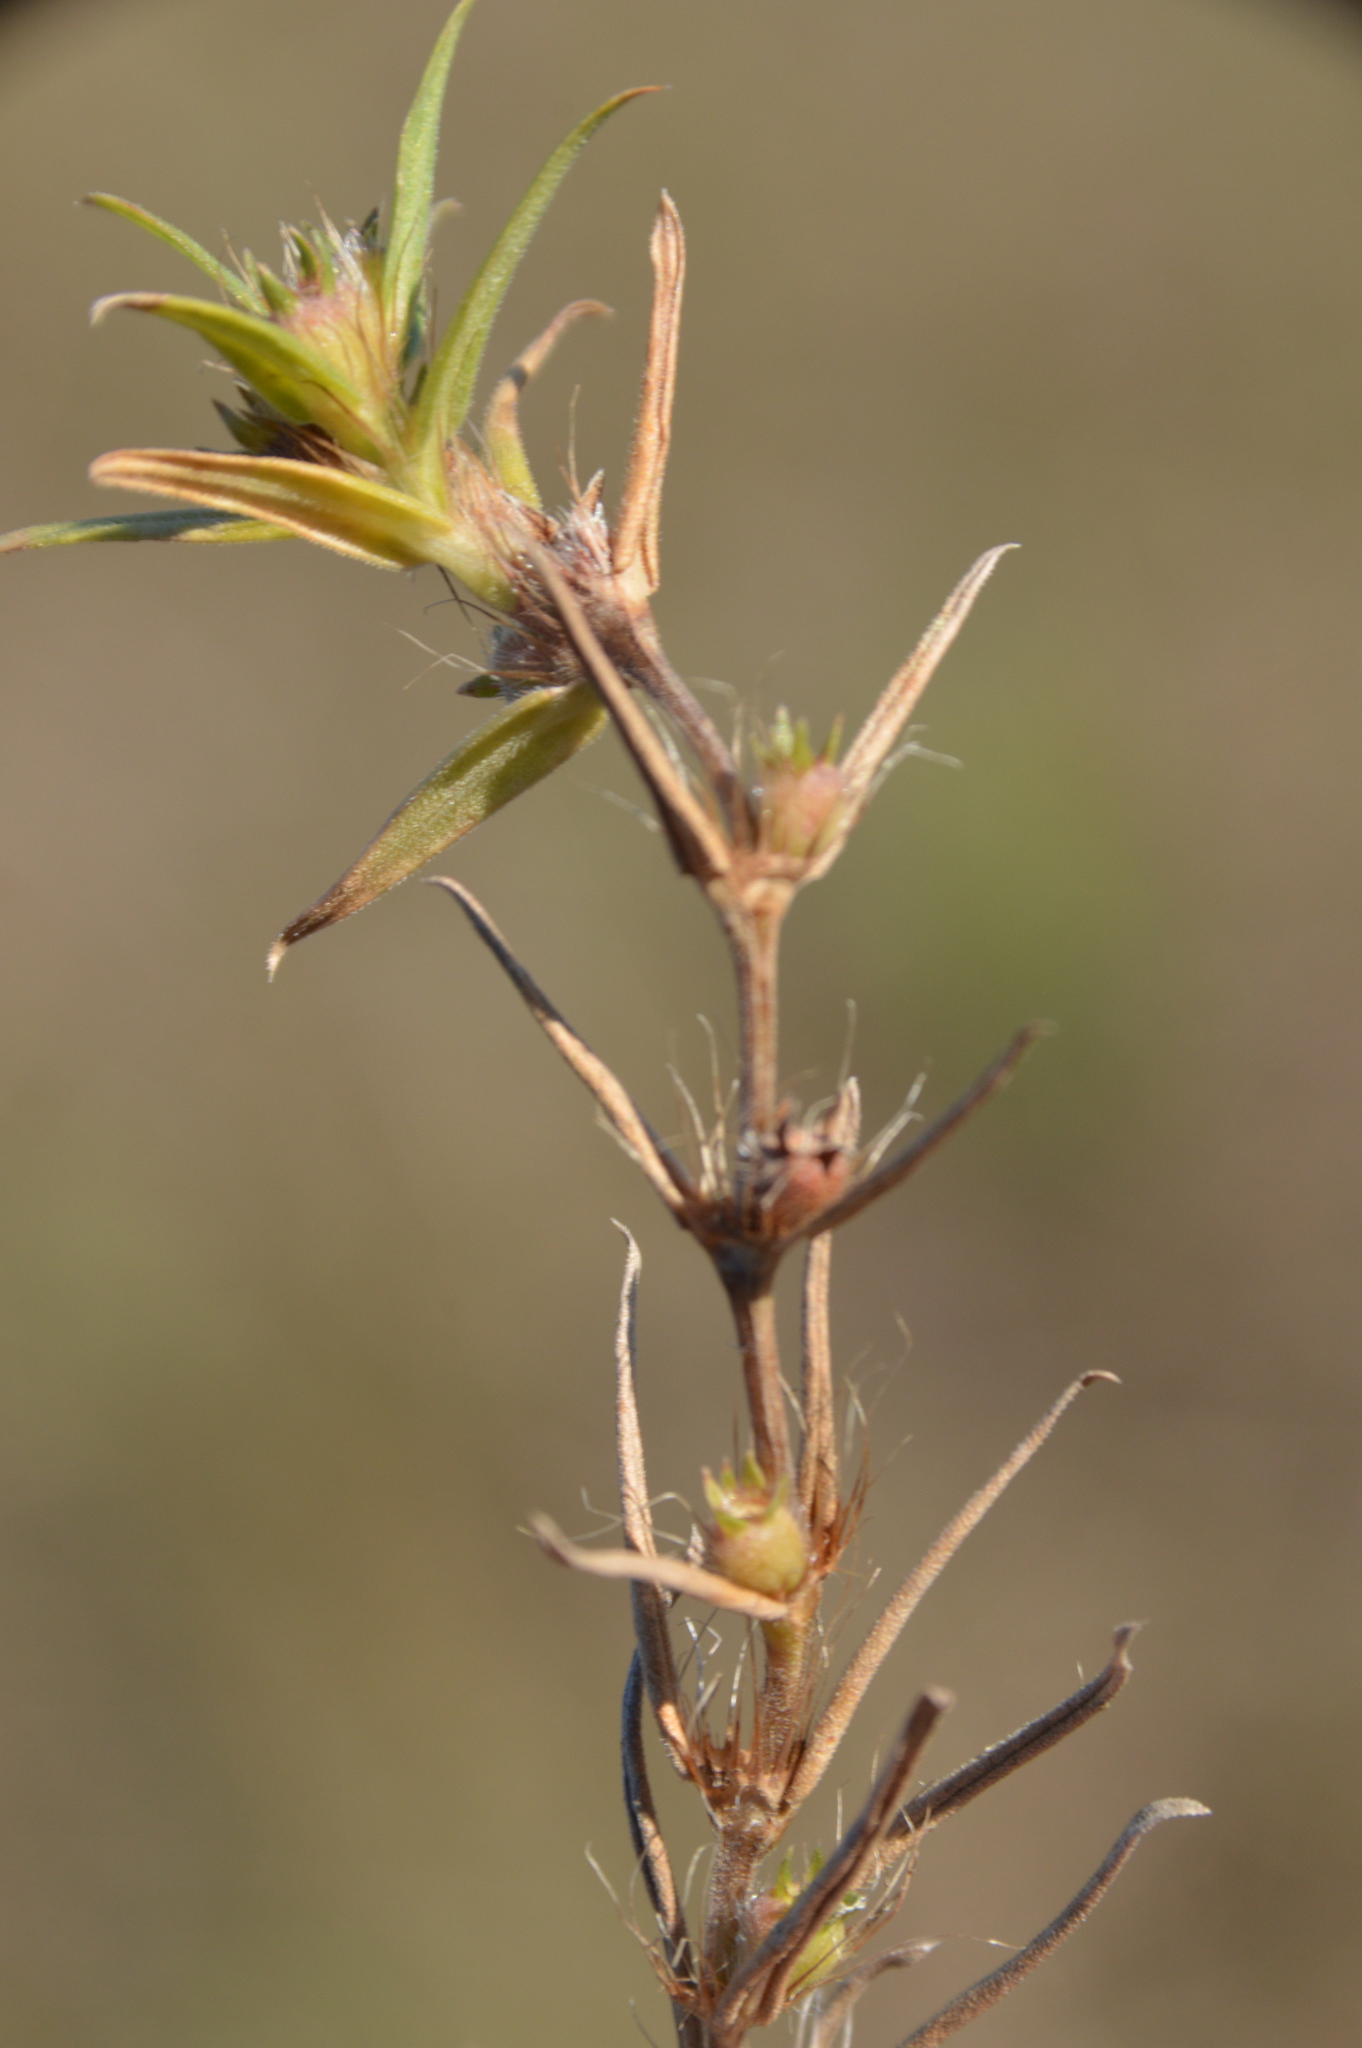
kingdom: Plantae
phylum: Tracheophyta
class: Magnoliopsida
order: Gentianales
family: Rubiaceae
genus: Hexasepalum
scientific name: Hexasepalum teres
